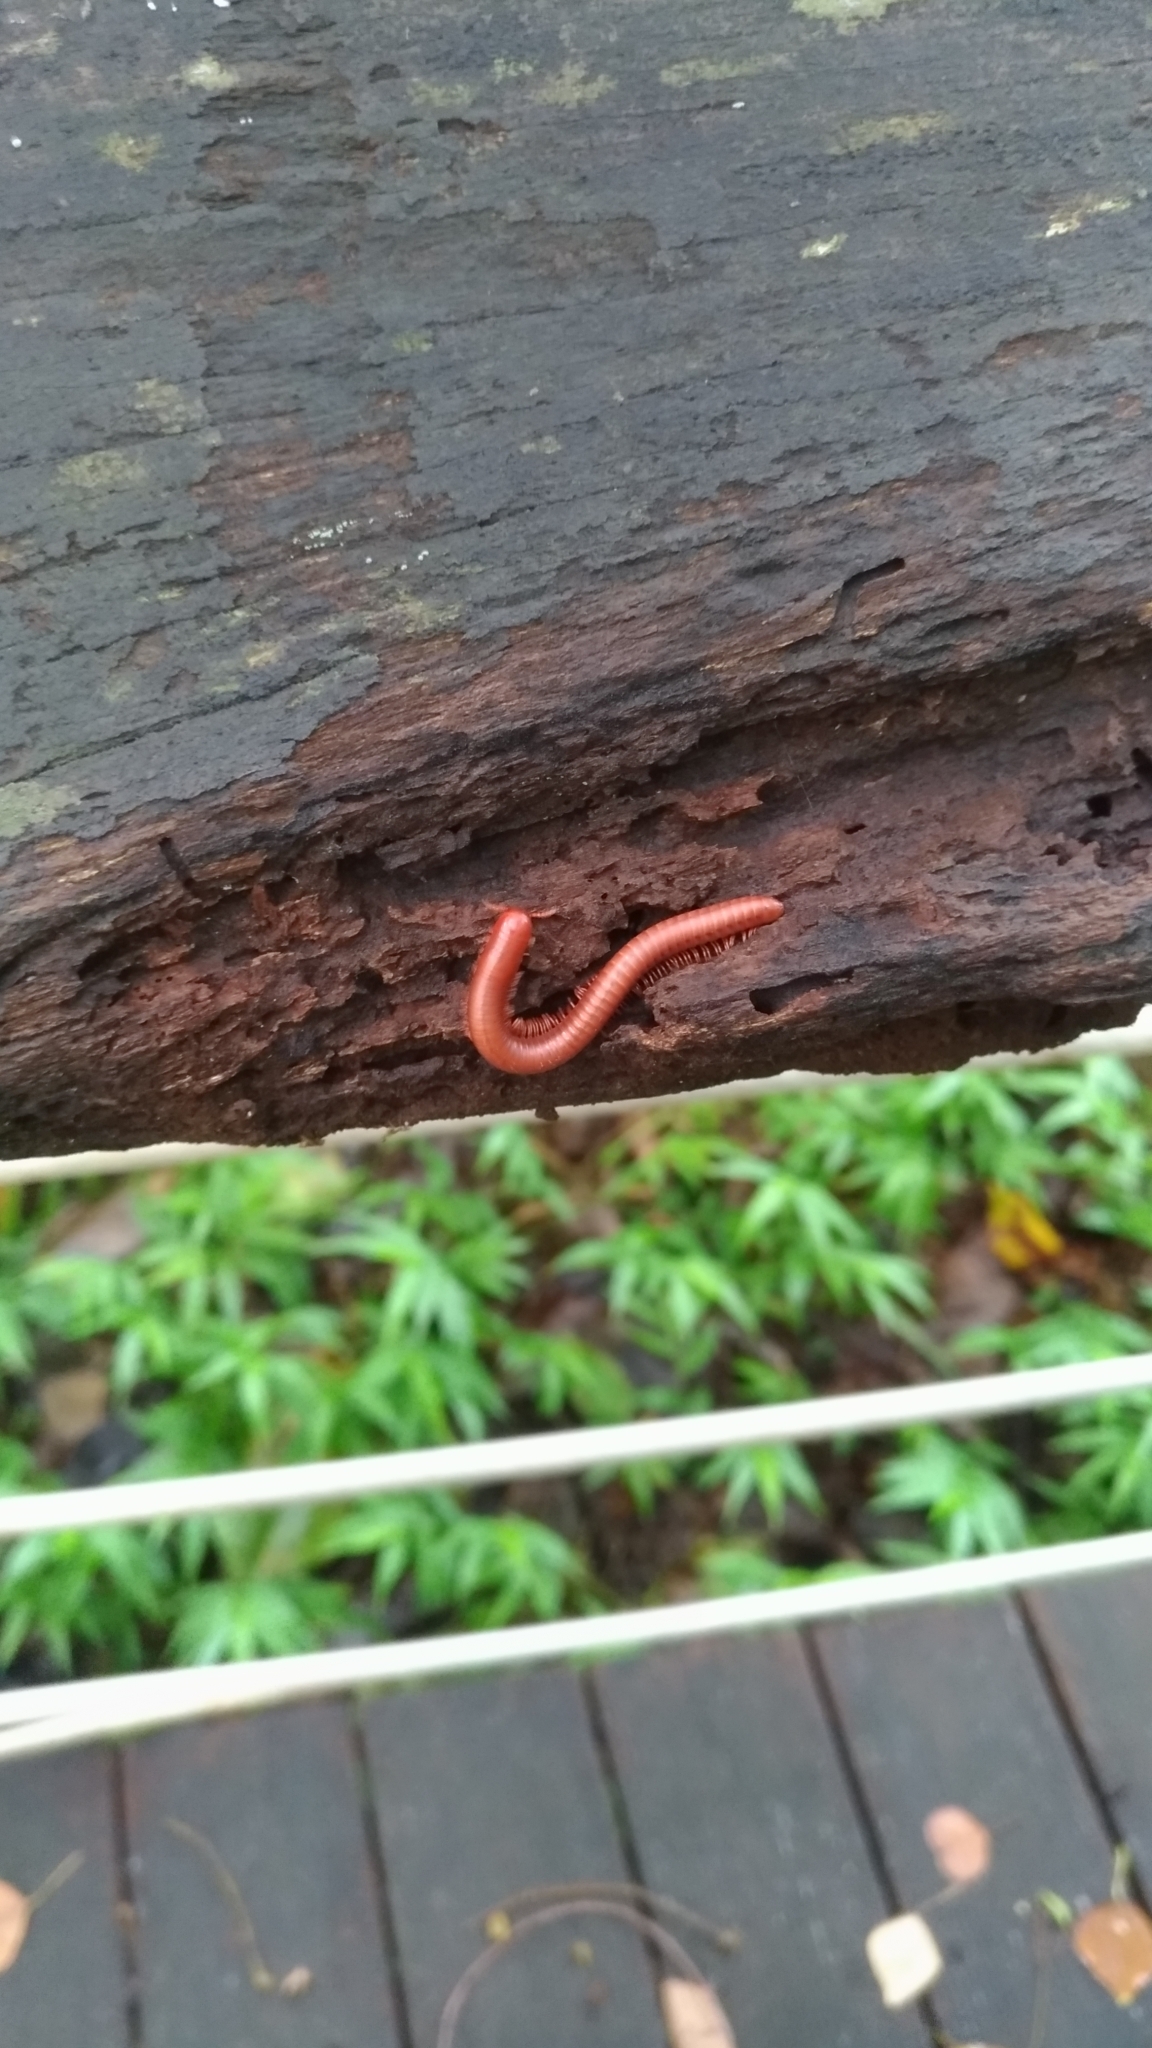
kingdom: Animalia
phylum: Arthropoda
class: Diplopoda
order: Spirobolida
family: Pachybolidae
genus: Trigoniulus
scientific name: Trigoniulus corallinus
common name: Millipede
